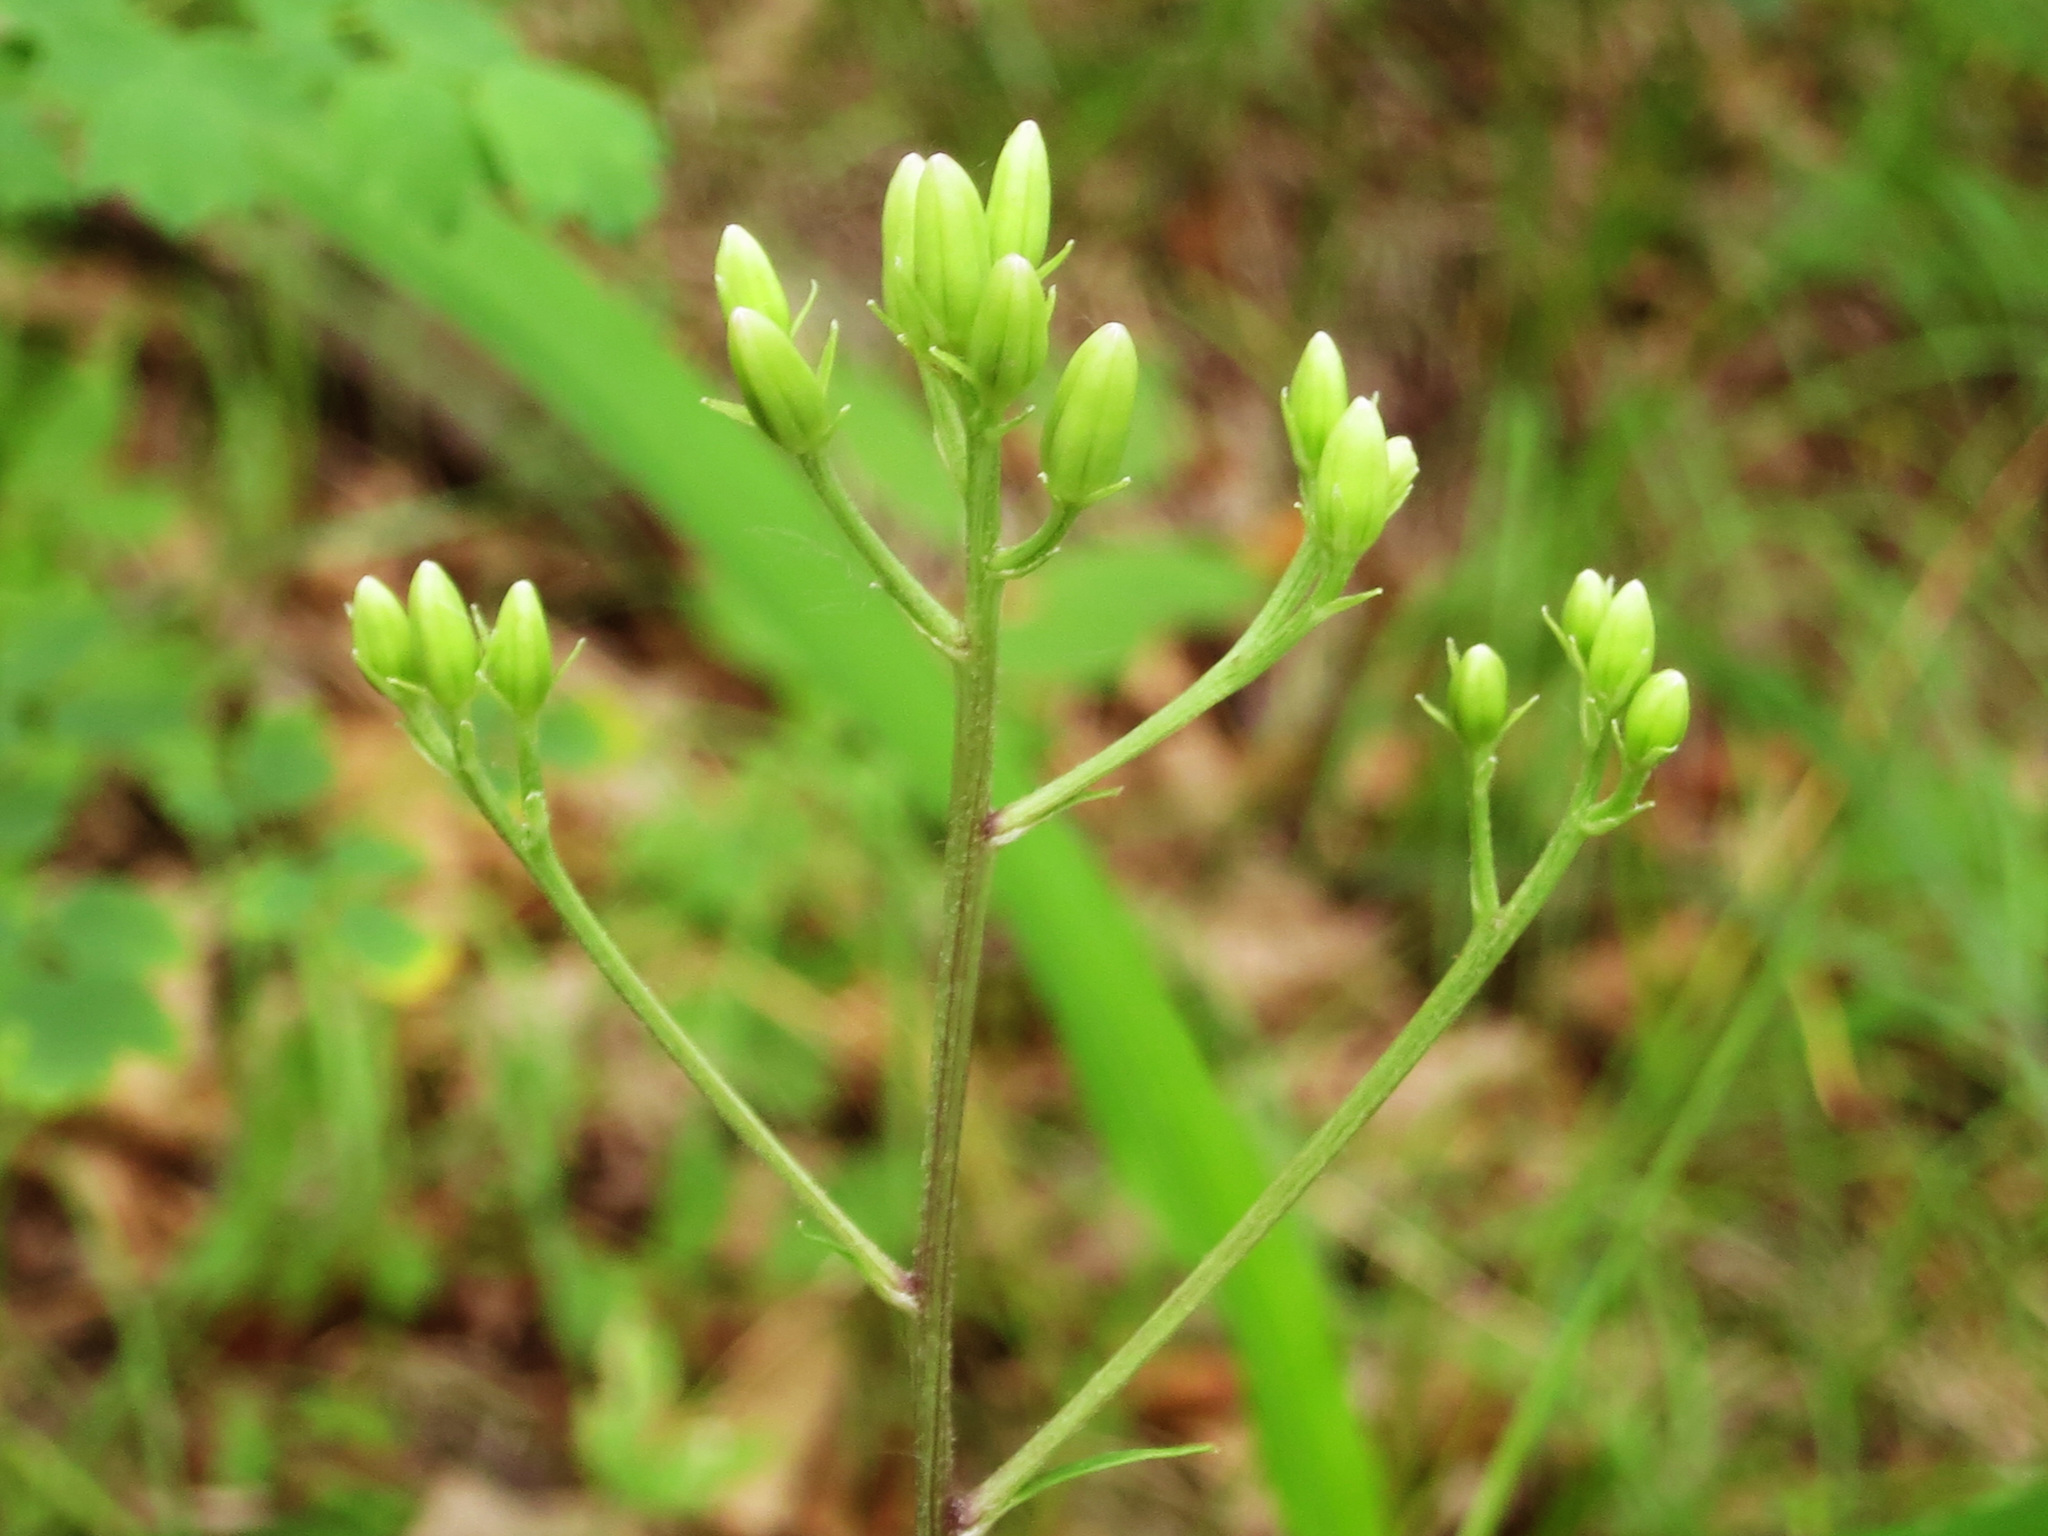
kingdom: Plantae
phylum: Tracheophyta
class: Magnoliopsida
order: Asterales
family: Asteraceae
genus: Syneilesis
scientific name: Syneilesis aconitifolia
